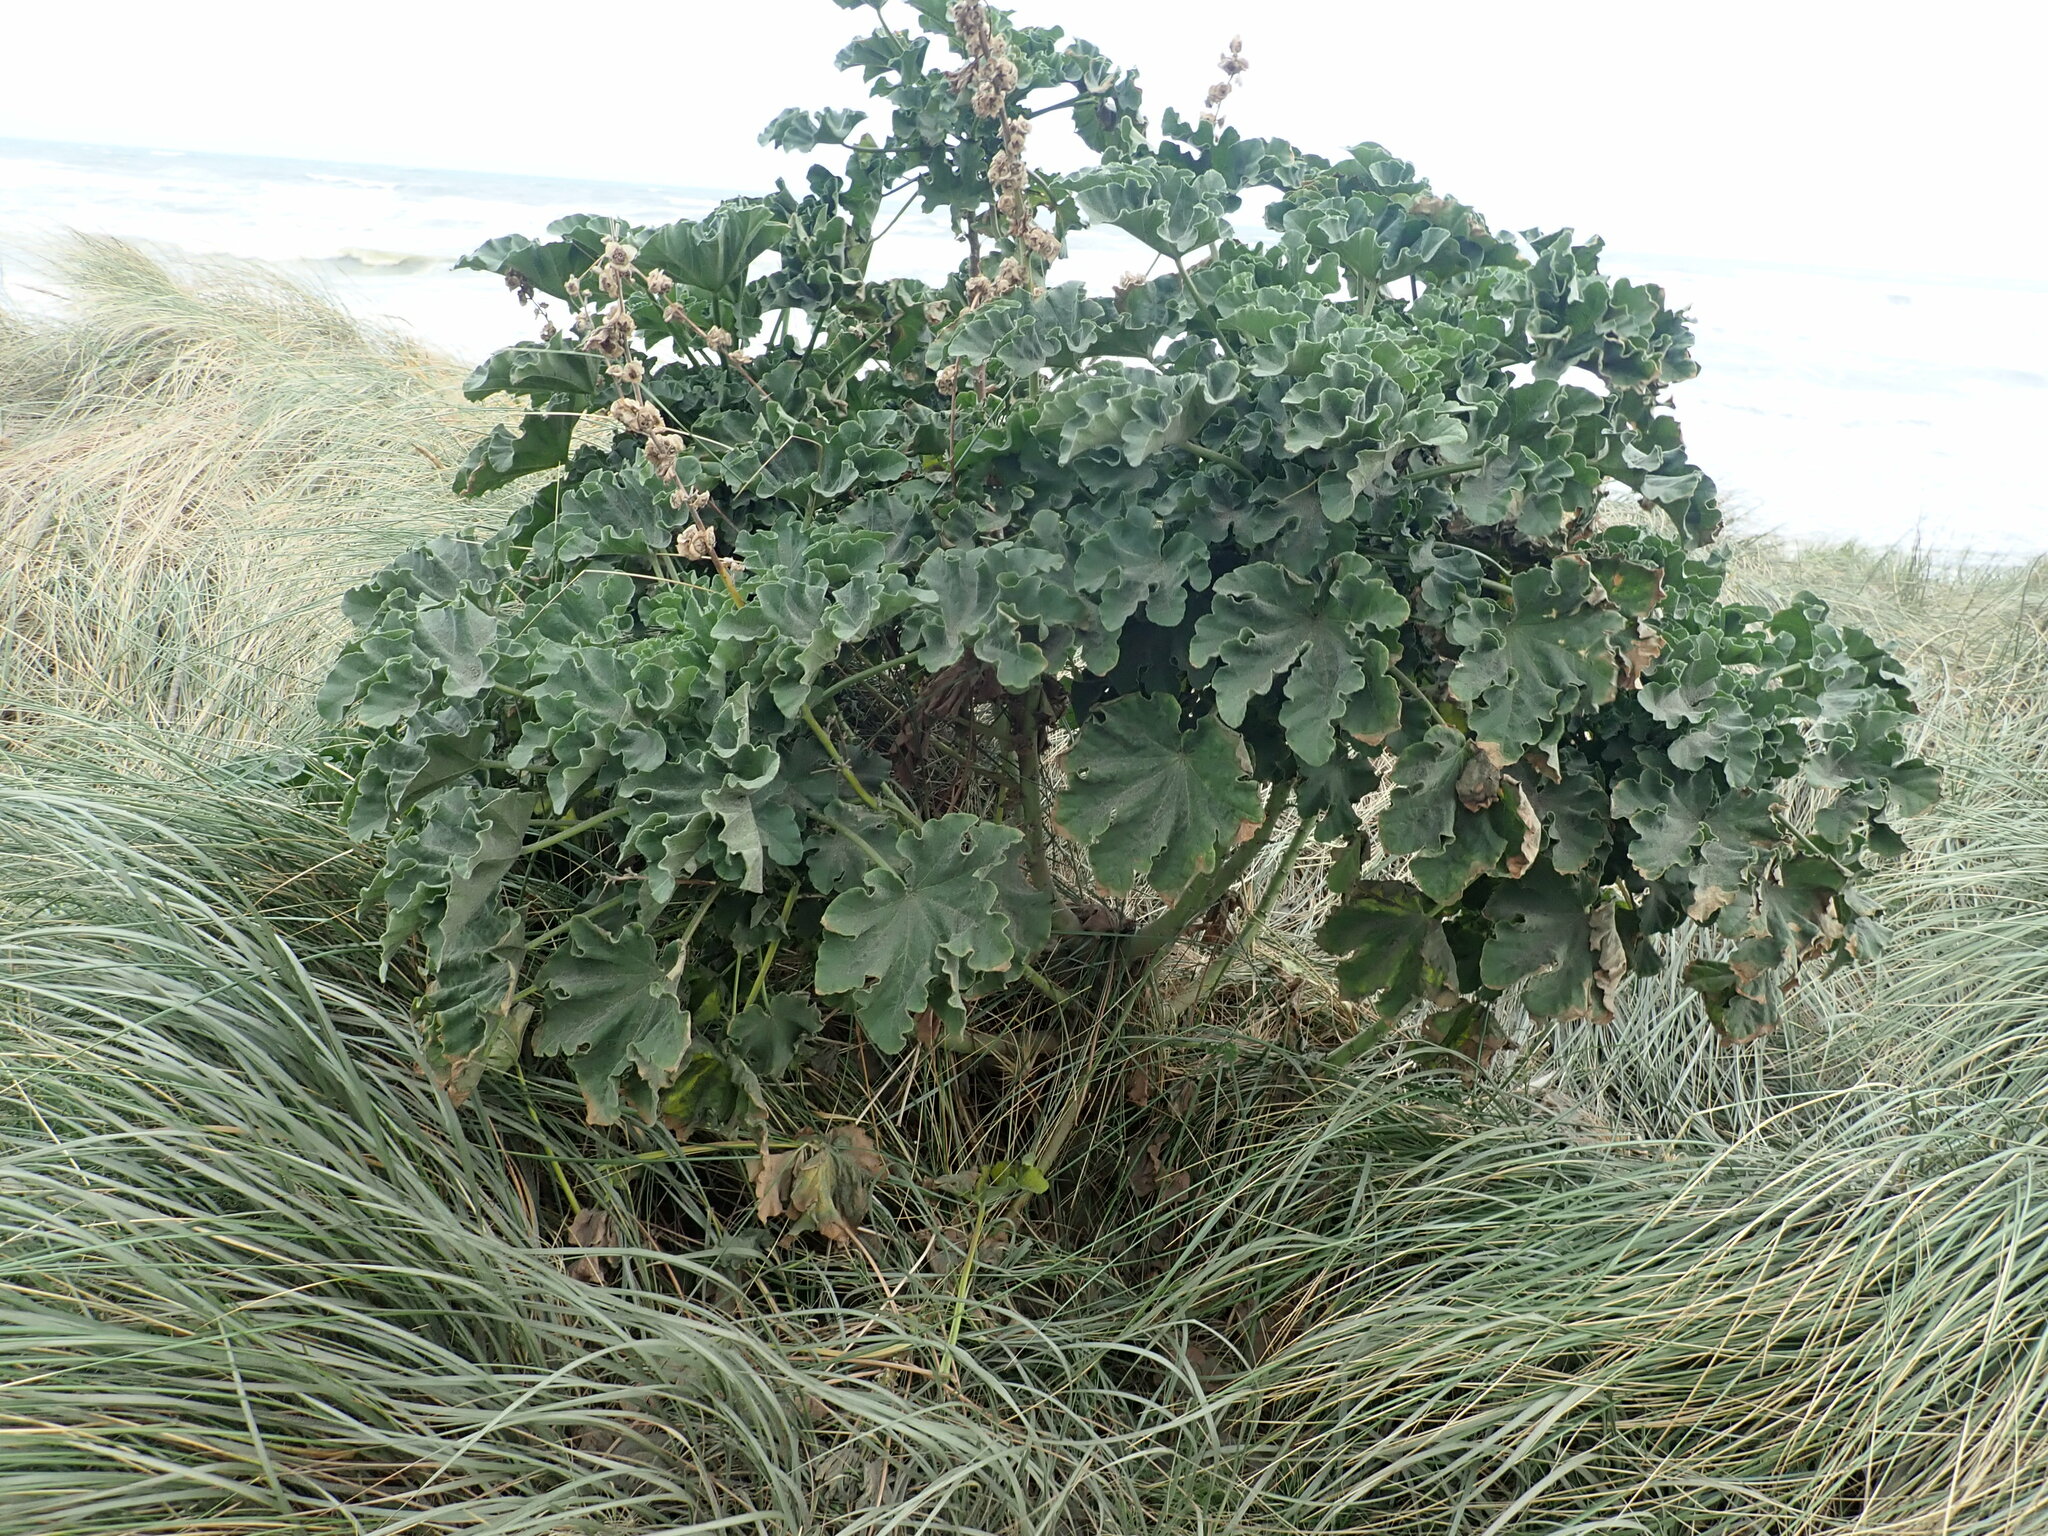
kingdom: Plantae
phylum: Tracheophyta
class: Magnoliopsida
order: Malvales
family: Malvaceae
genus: Malva
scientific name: Malva arborea
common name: Tree mallow
